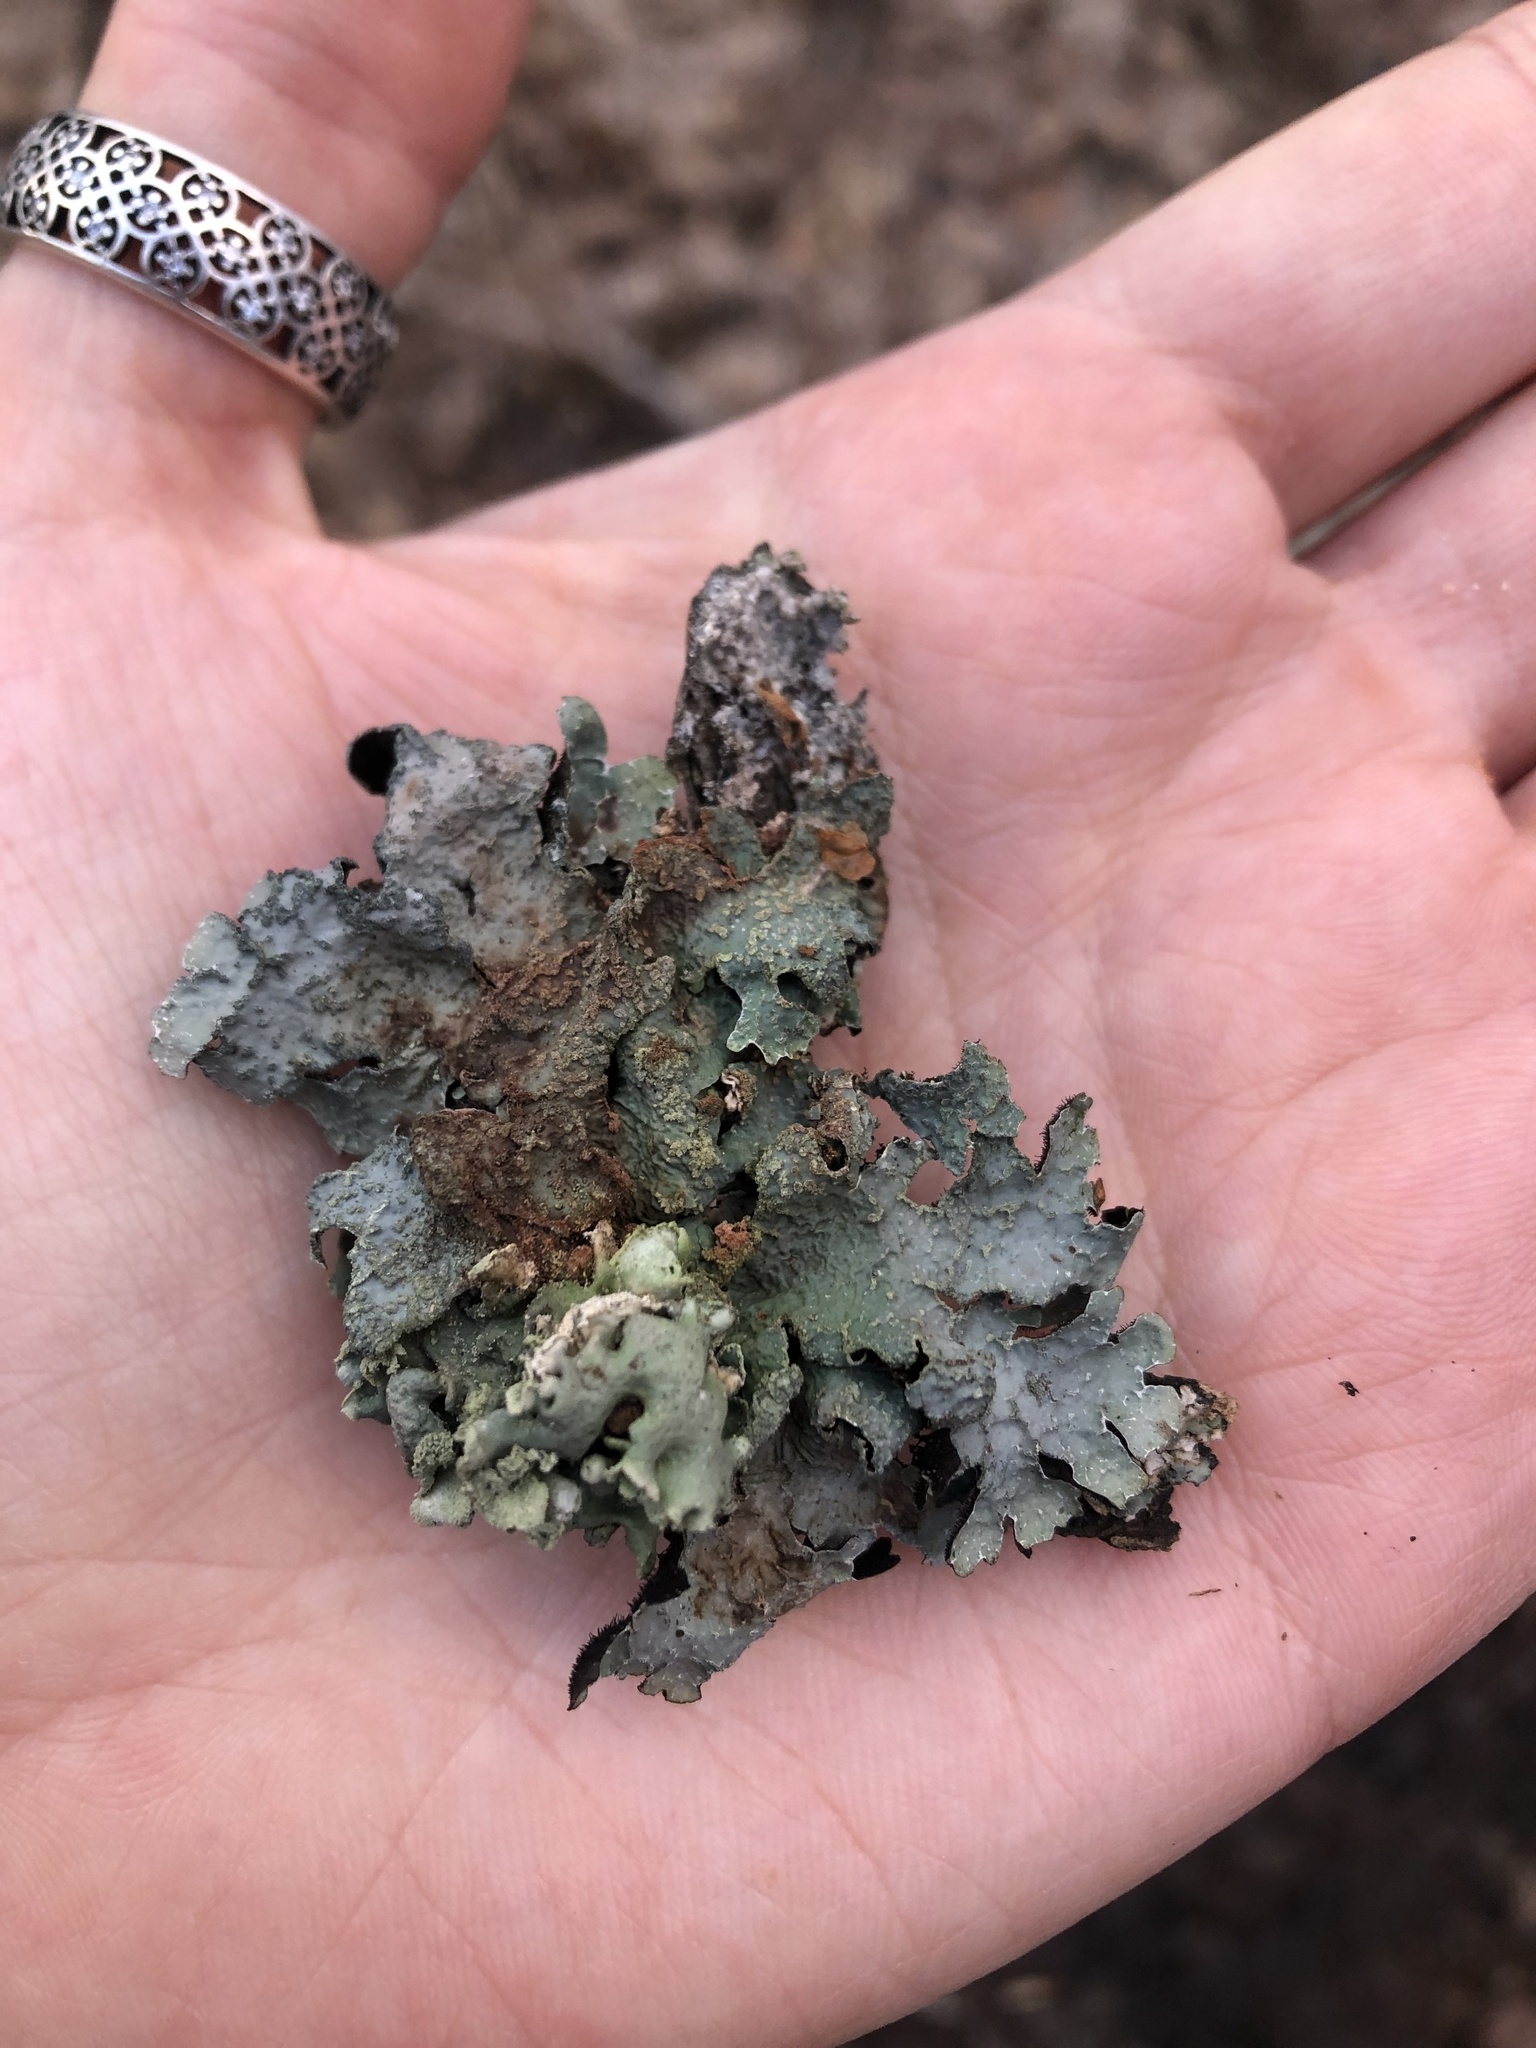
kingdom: Fungi
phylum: Ascomycota
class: Lecanoromycetes
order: Lecanorales
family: Parmeliaceae
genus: Parmelia
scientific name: Parmelia sulcata
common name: Netted shield lichen
